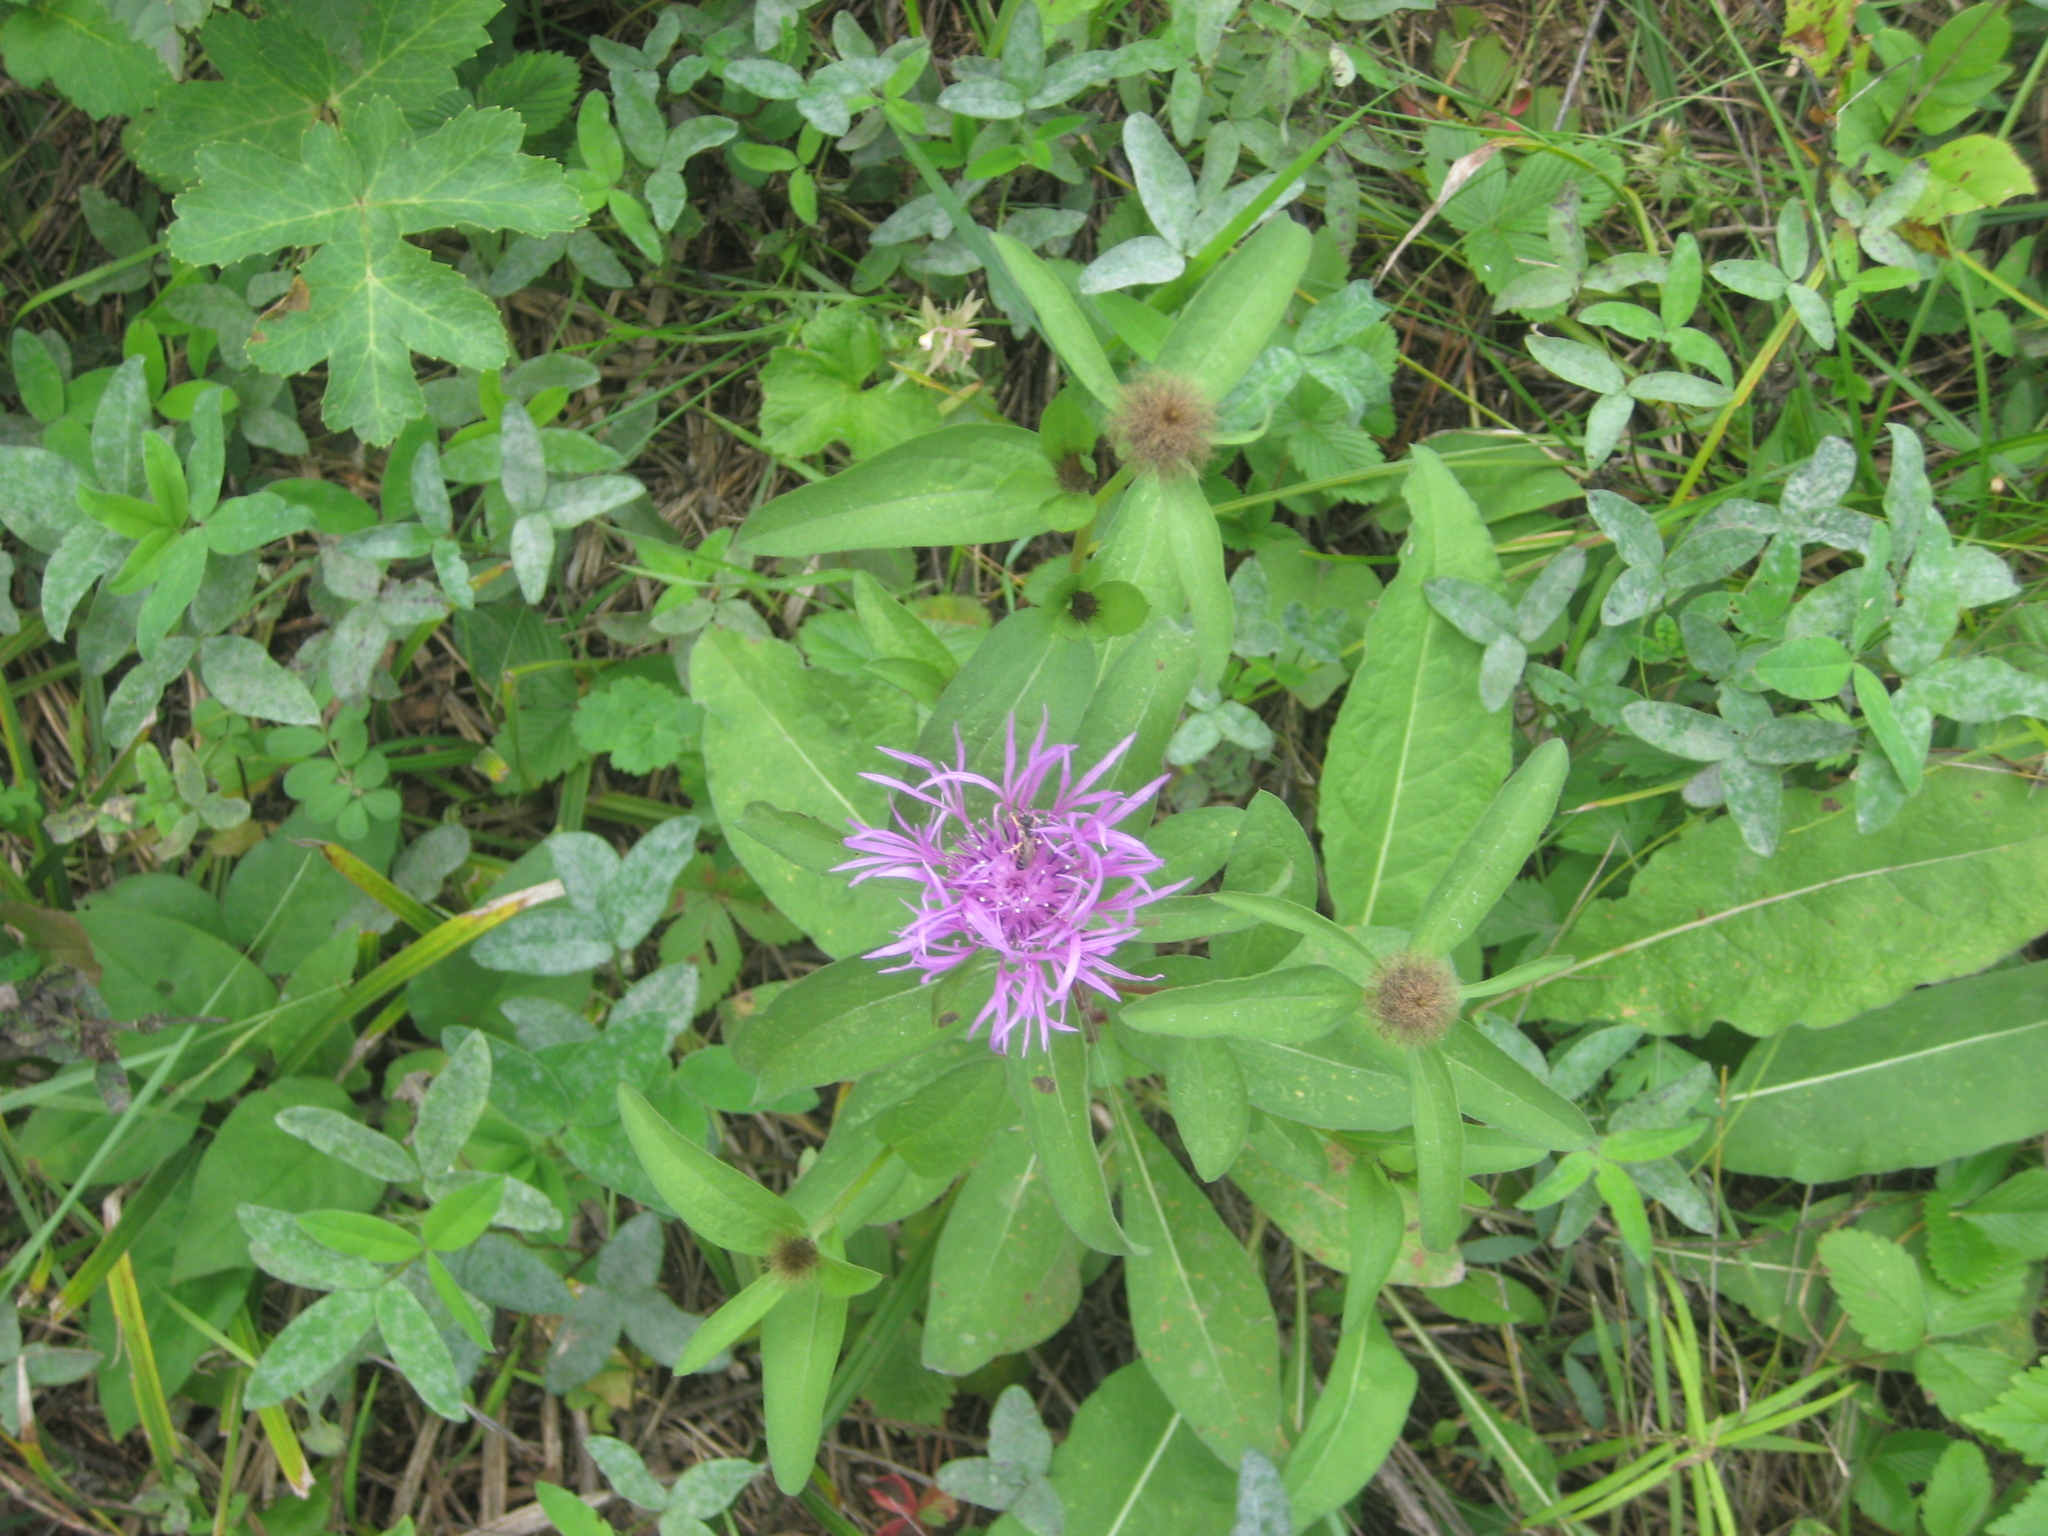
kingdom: Plantae
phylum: Tracheophyta
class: Magnoliopsida
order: Asterales
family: Asteraceae
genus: Centaurea
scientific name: Centaurea pseudophrygia
